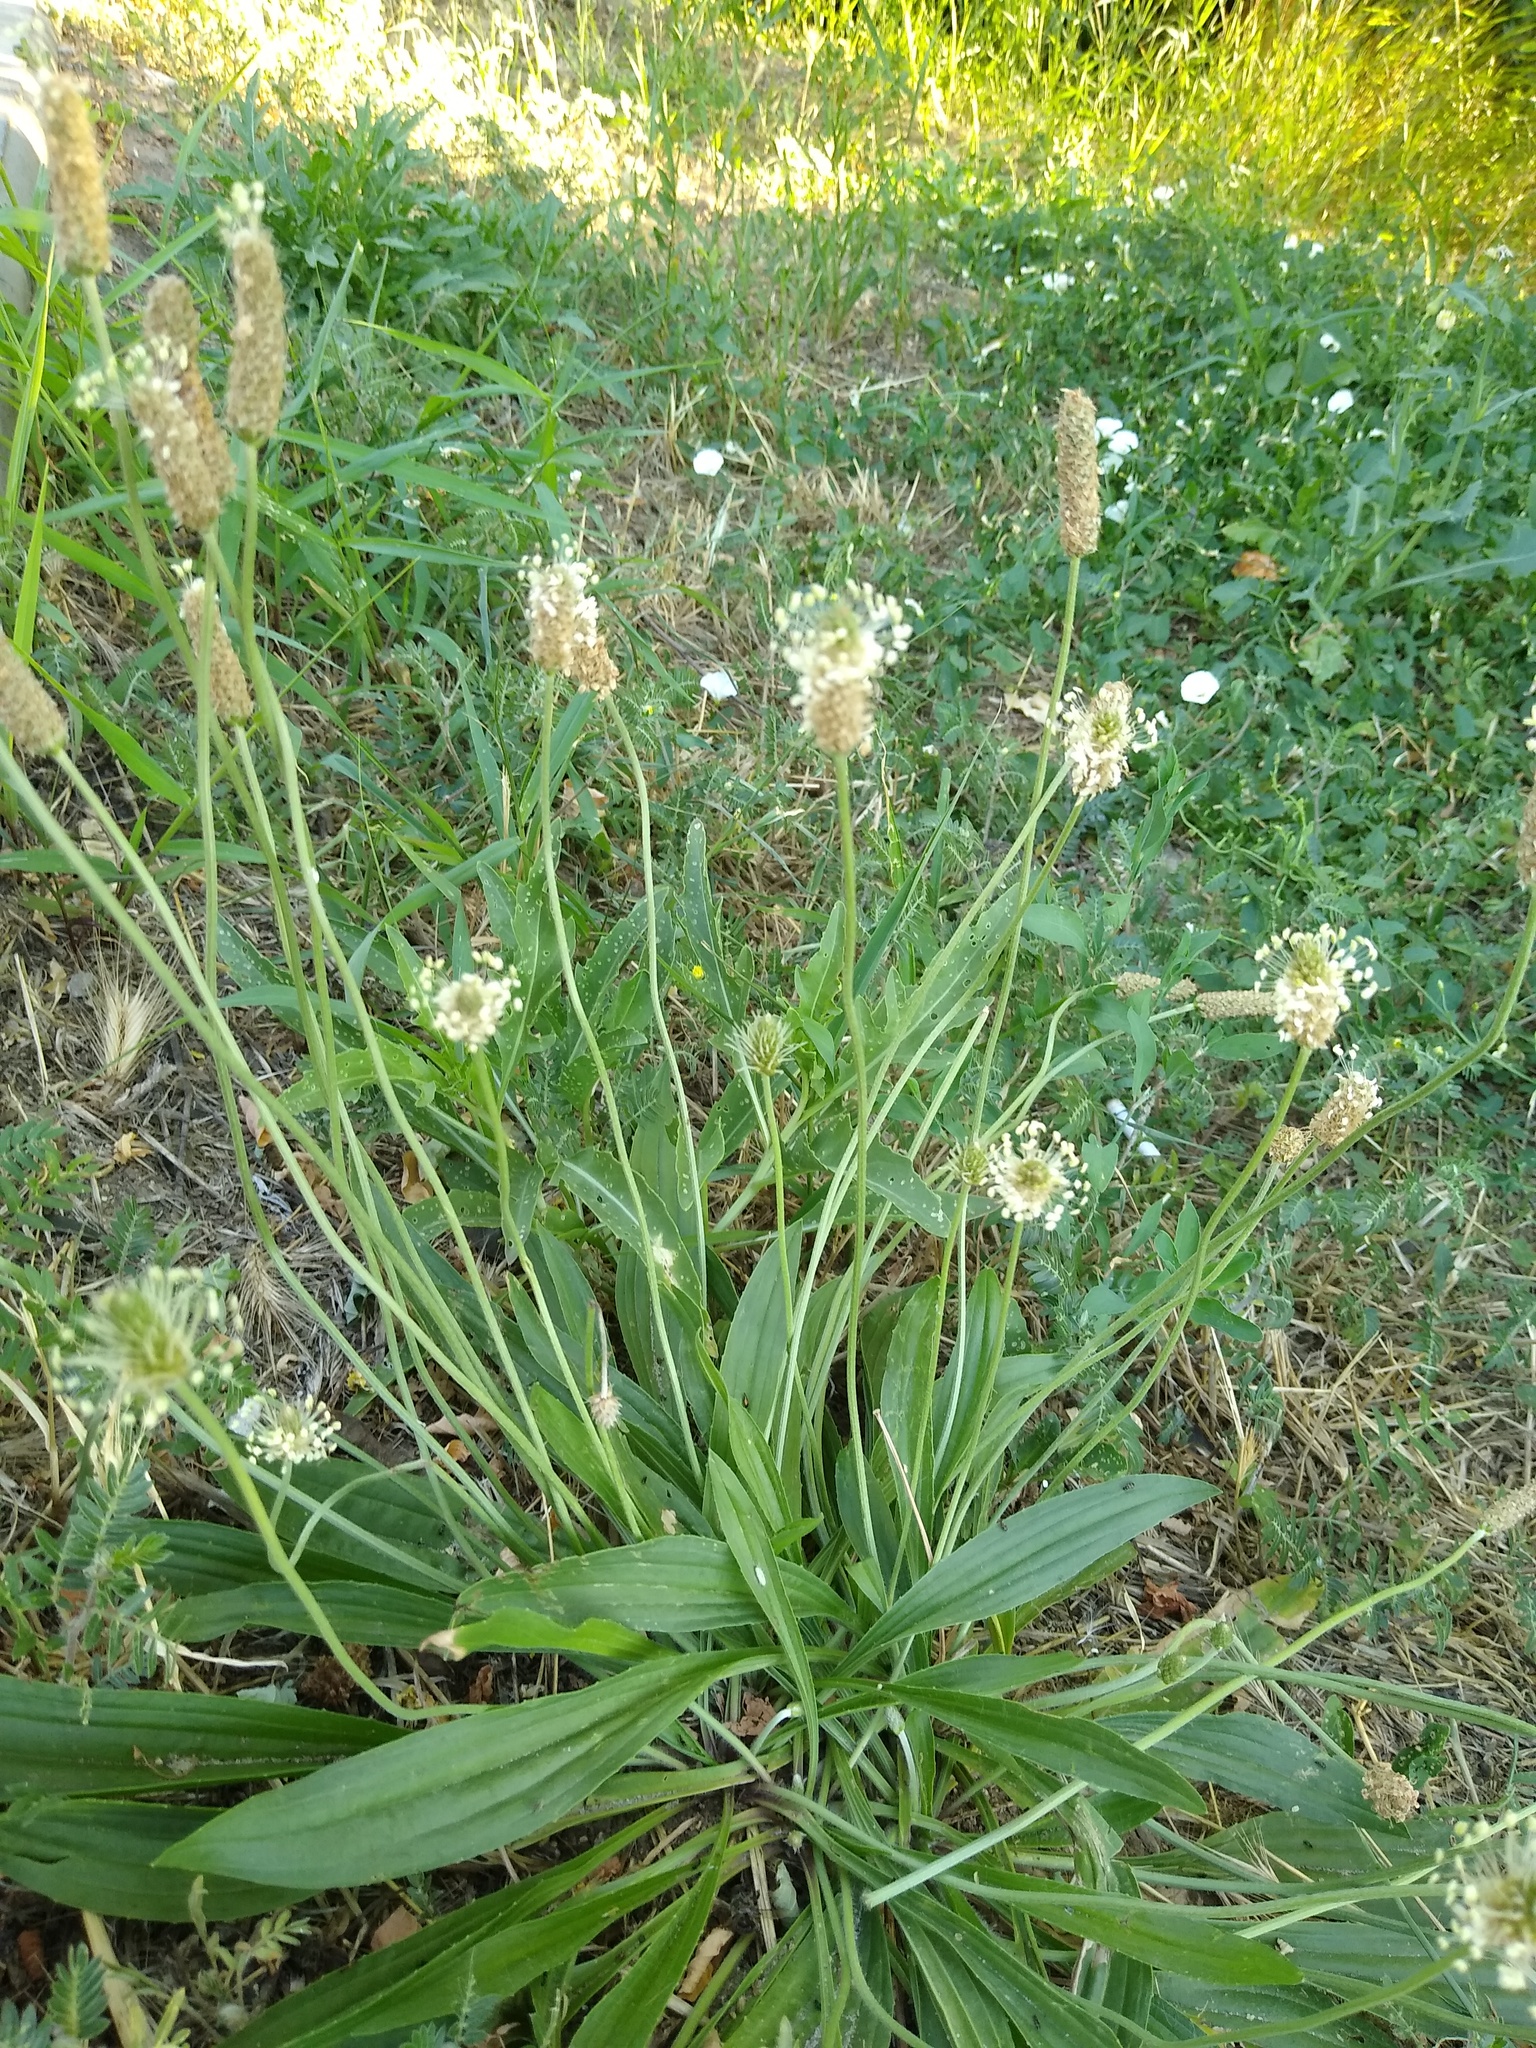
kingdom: Plantae
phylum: Tracheophyta
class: Magnoliopsida
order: Lamiales
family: Plantaginaceae
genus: Plantago
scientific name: Plantago lanceolata
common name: Ribwort plantain
